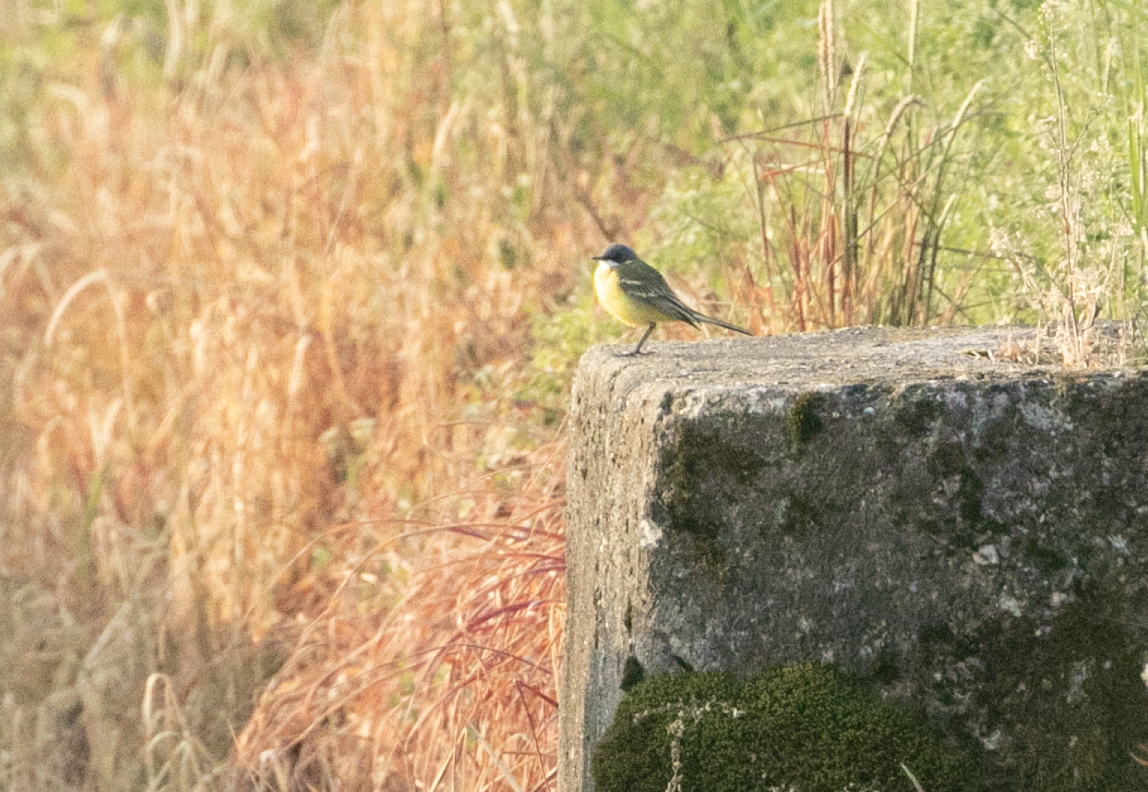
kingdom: Animalia
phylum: Chordata
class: Aves
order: Passeriformes
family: Motacillidae
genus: Motacilla
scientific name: Motacilla flava
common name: Western yellow wagtail
